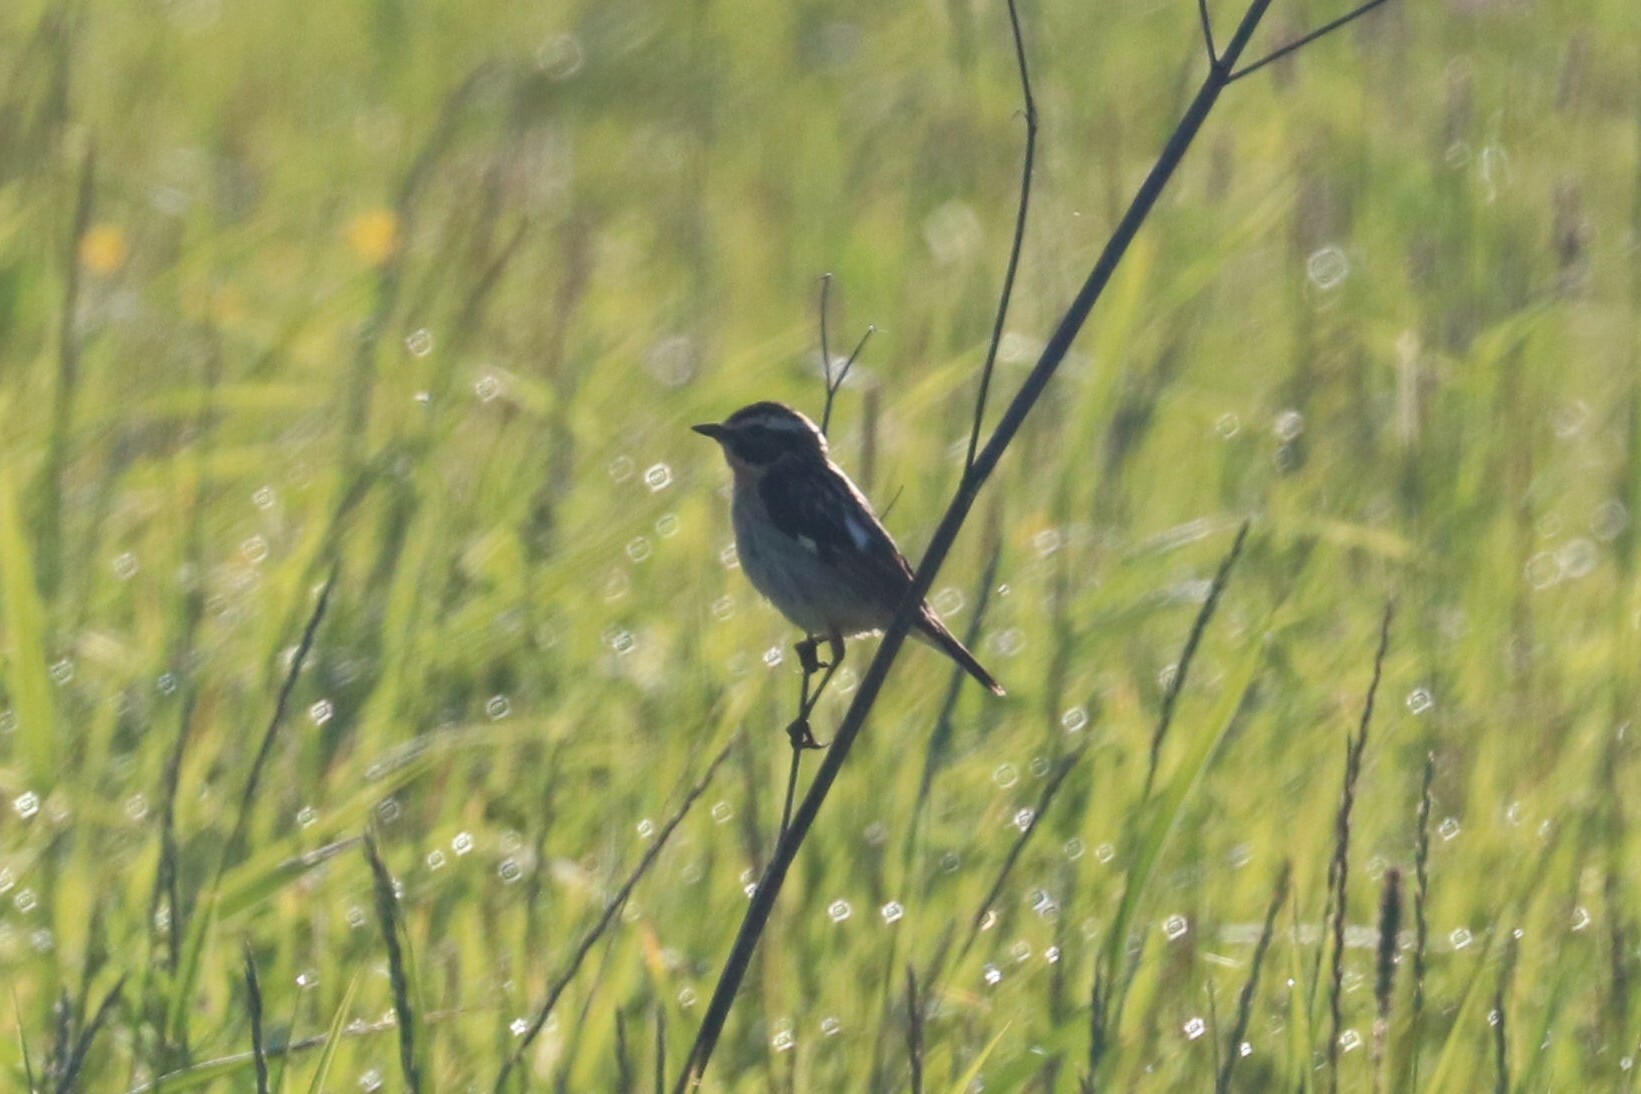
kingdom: Animalia
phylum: Chordata
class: Aves
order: Passeriformes
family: Muscicapidae
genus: Saxicola
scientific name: Saxicola rubetra
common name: Whinchat
